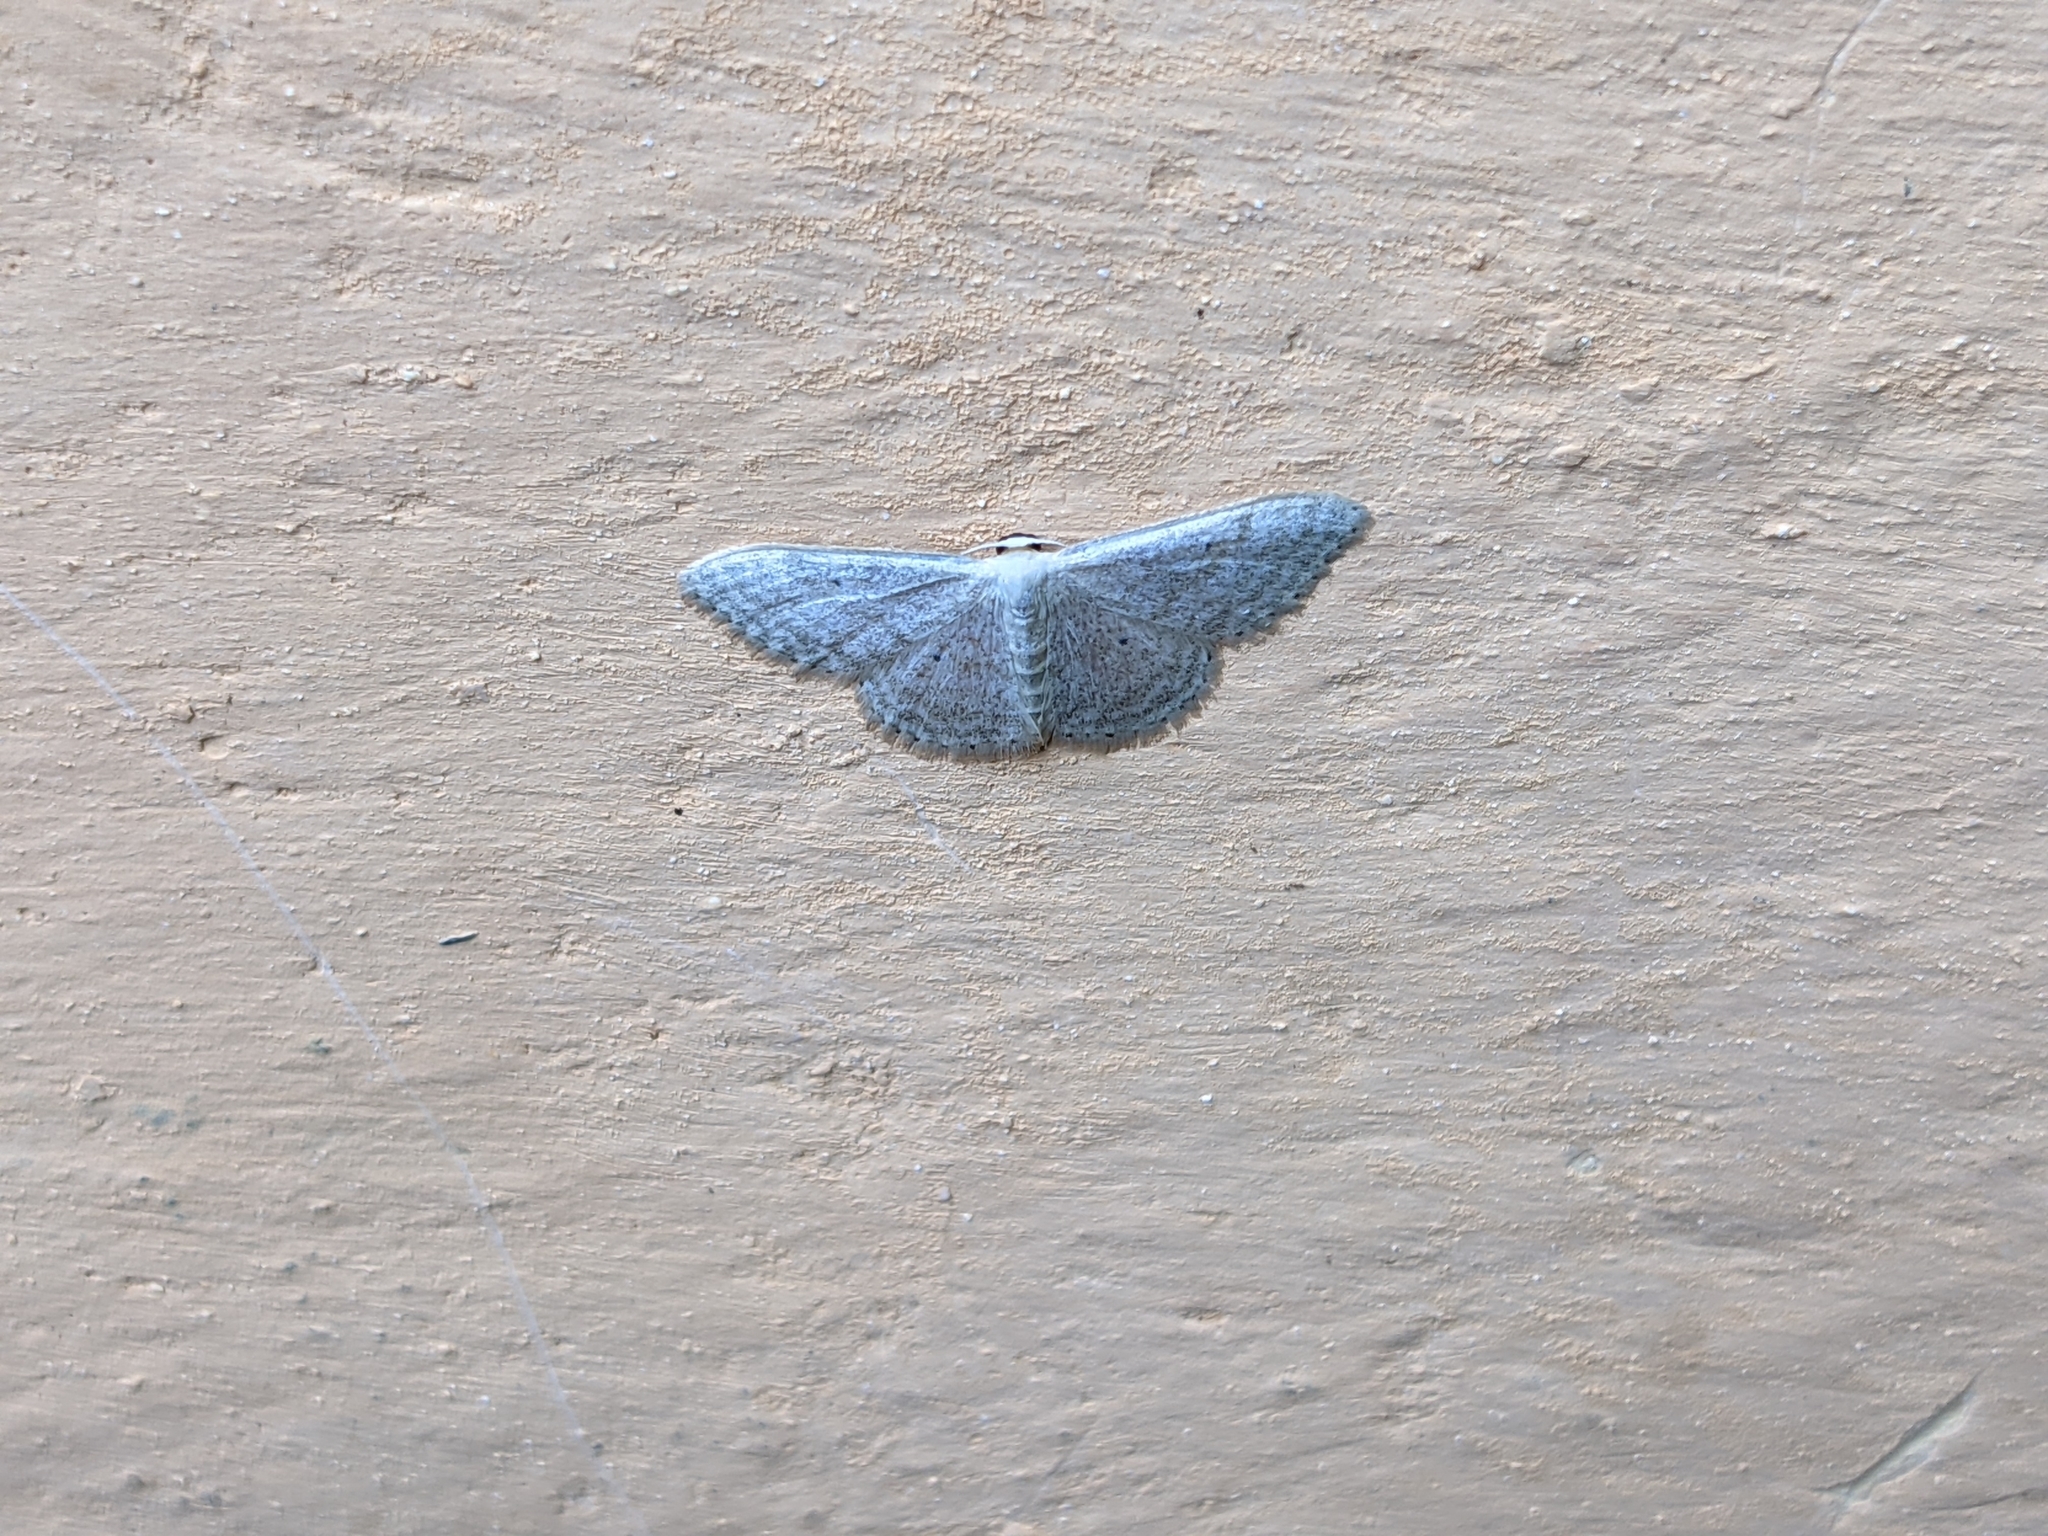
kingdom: Animalia
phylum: Arthropoda
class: Insecta
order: Lepidoptera
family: Geometridae
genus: Idaea
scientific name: Idaea subsericeata
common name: Satin wave
